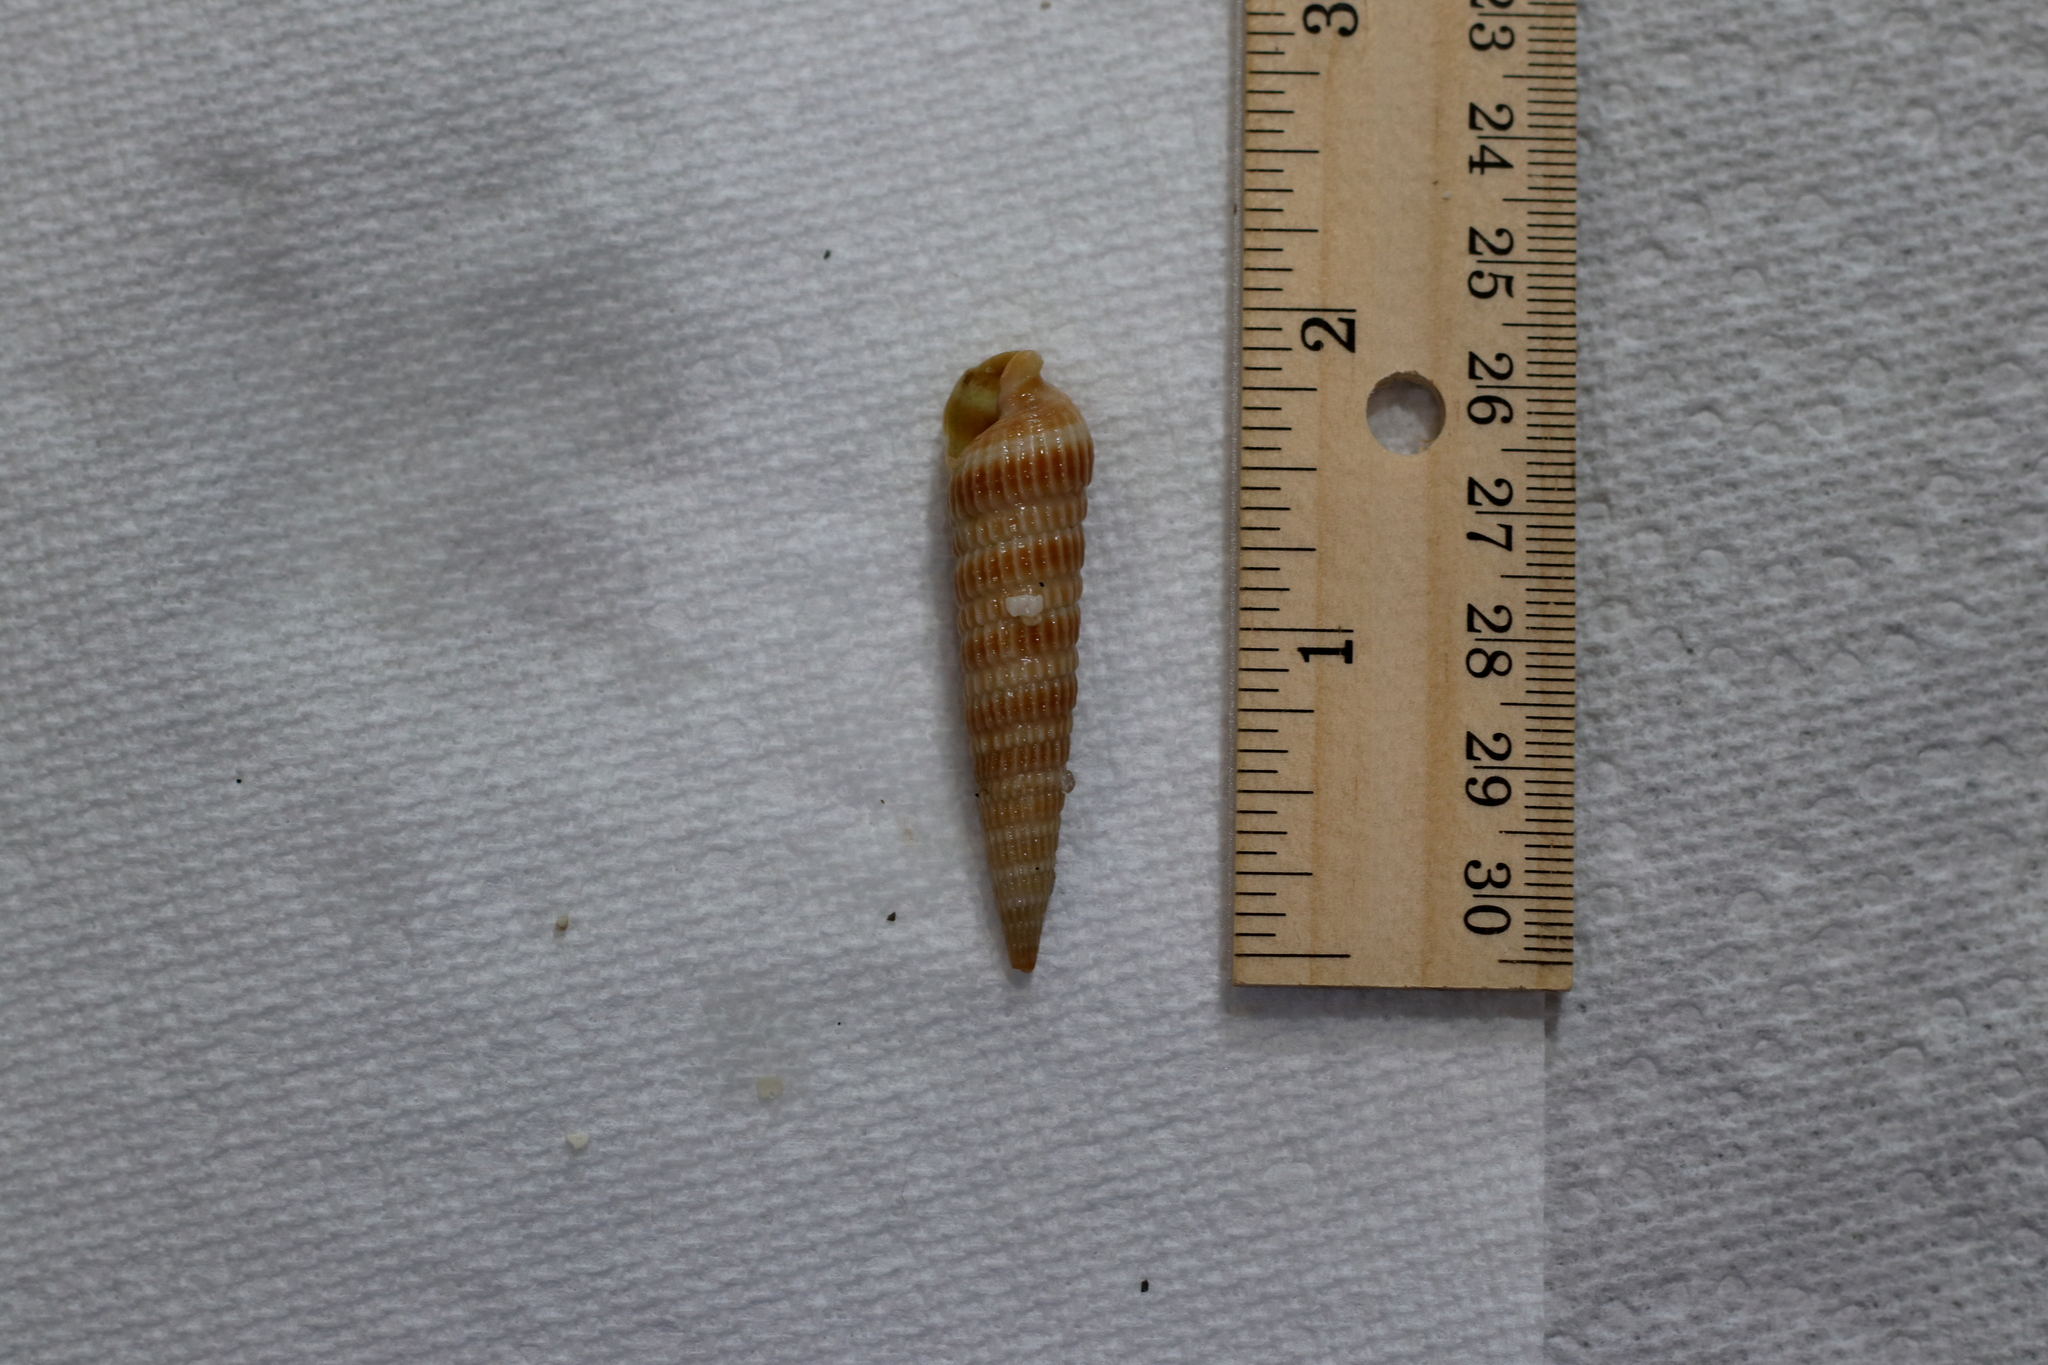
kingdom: Animalia
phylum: Mollusca
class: Gastropoda
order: Neogastropoda
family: Terebridae
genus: Neoterebra
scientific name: Neoterebra dislocata
